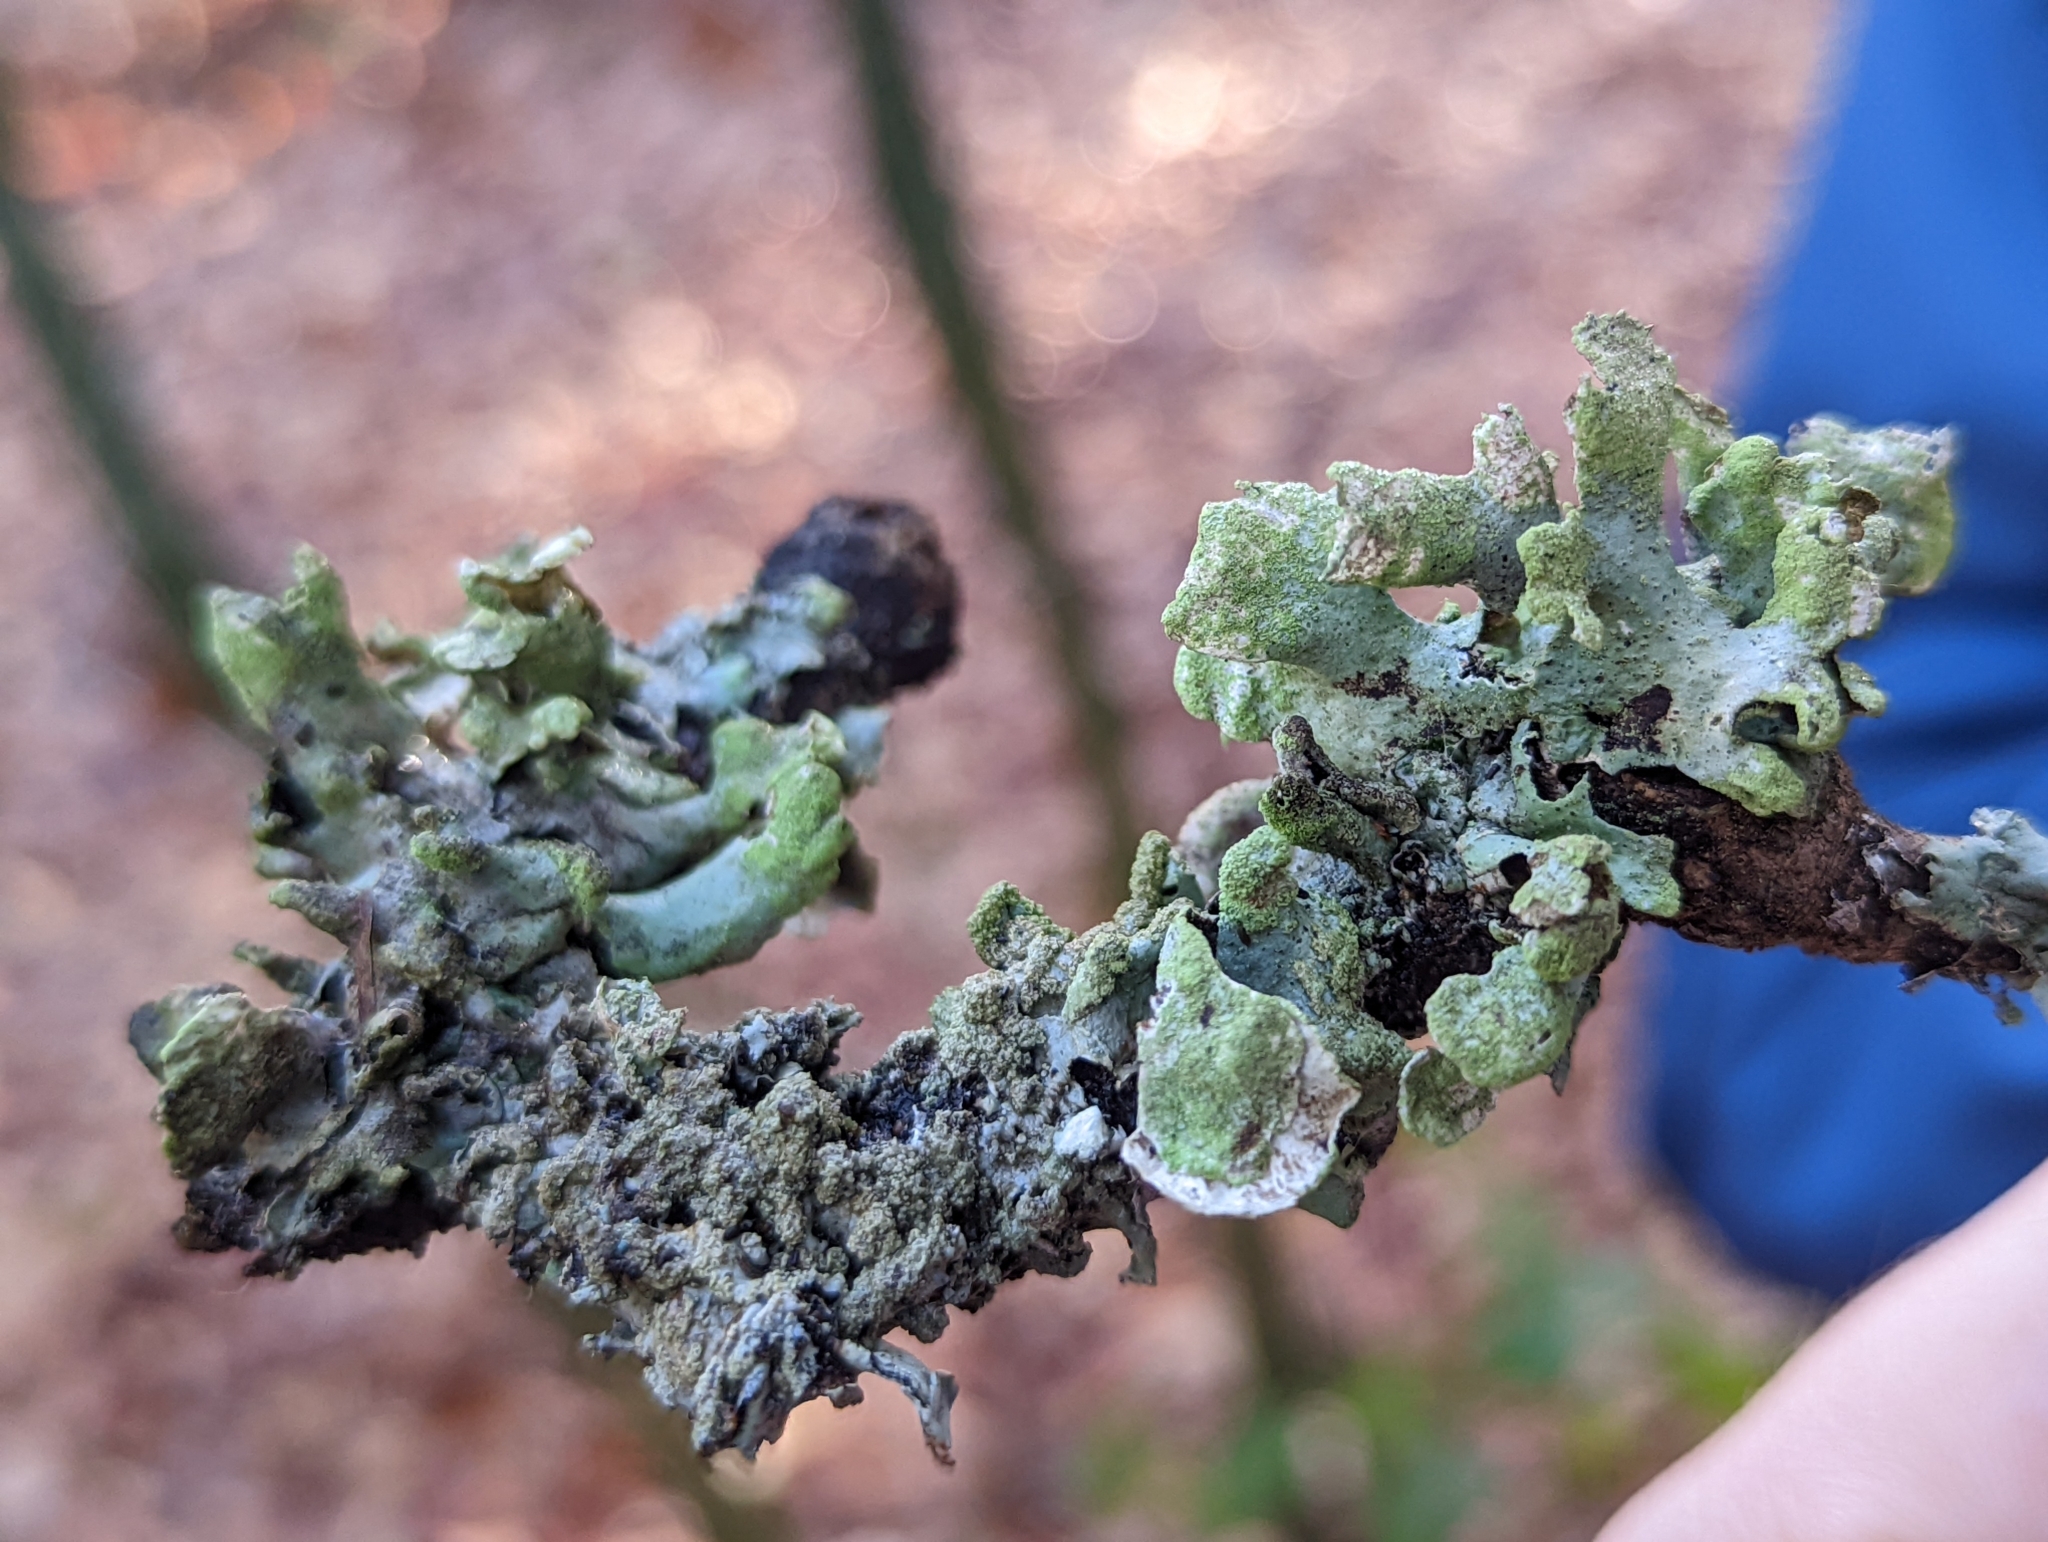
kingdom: Fungi
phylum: Ascomycota
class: Lecanoromycetes
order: Lecanorales
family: Parmeliaceae
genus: Hypotrachyna
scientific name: Hypotrachyna revoluta
